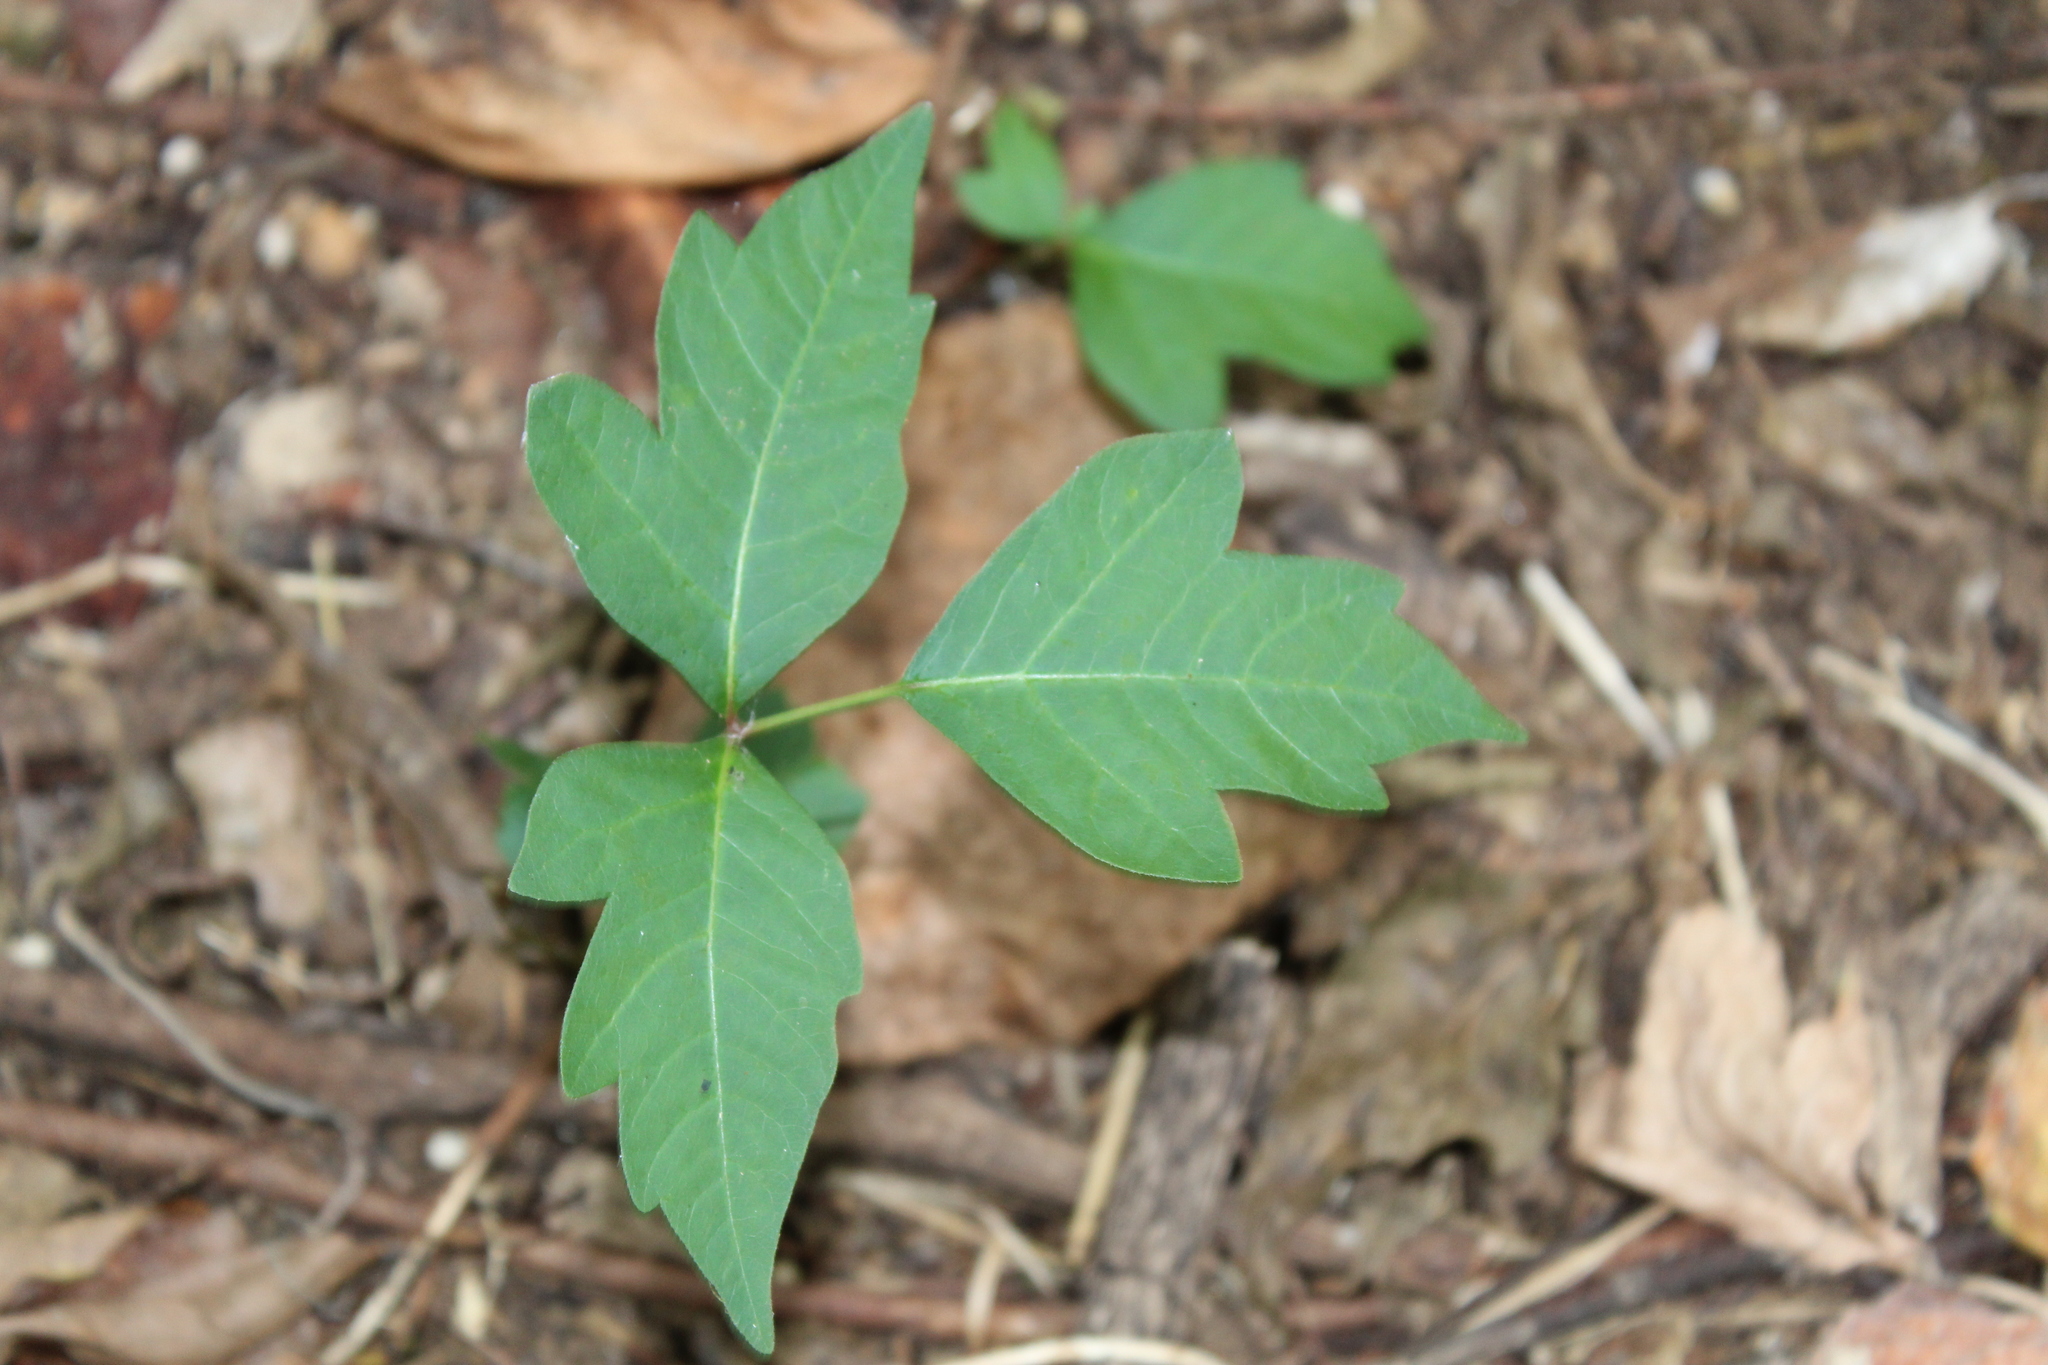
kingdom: Plantae
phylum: Tracheophyta
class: Magnoliopsida
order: Sapindales
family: Anacardiaceae
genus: Toxicodendron
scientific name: Toxicodendron radicans
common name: Poison ivy
